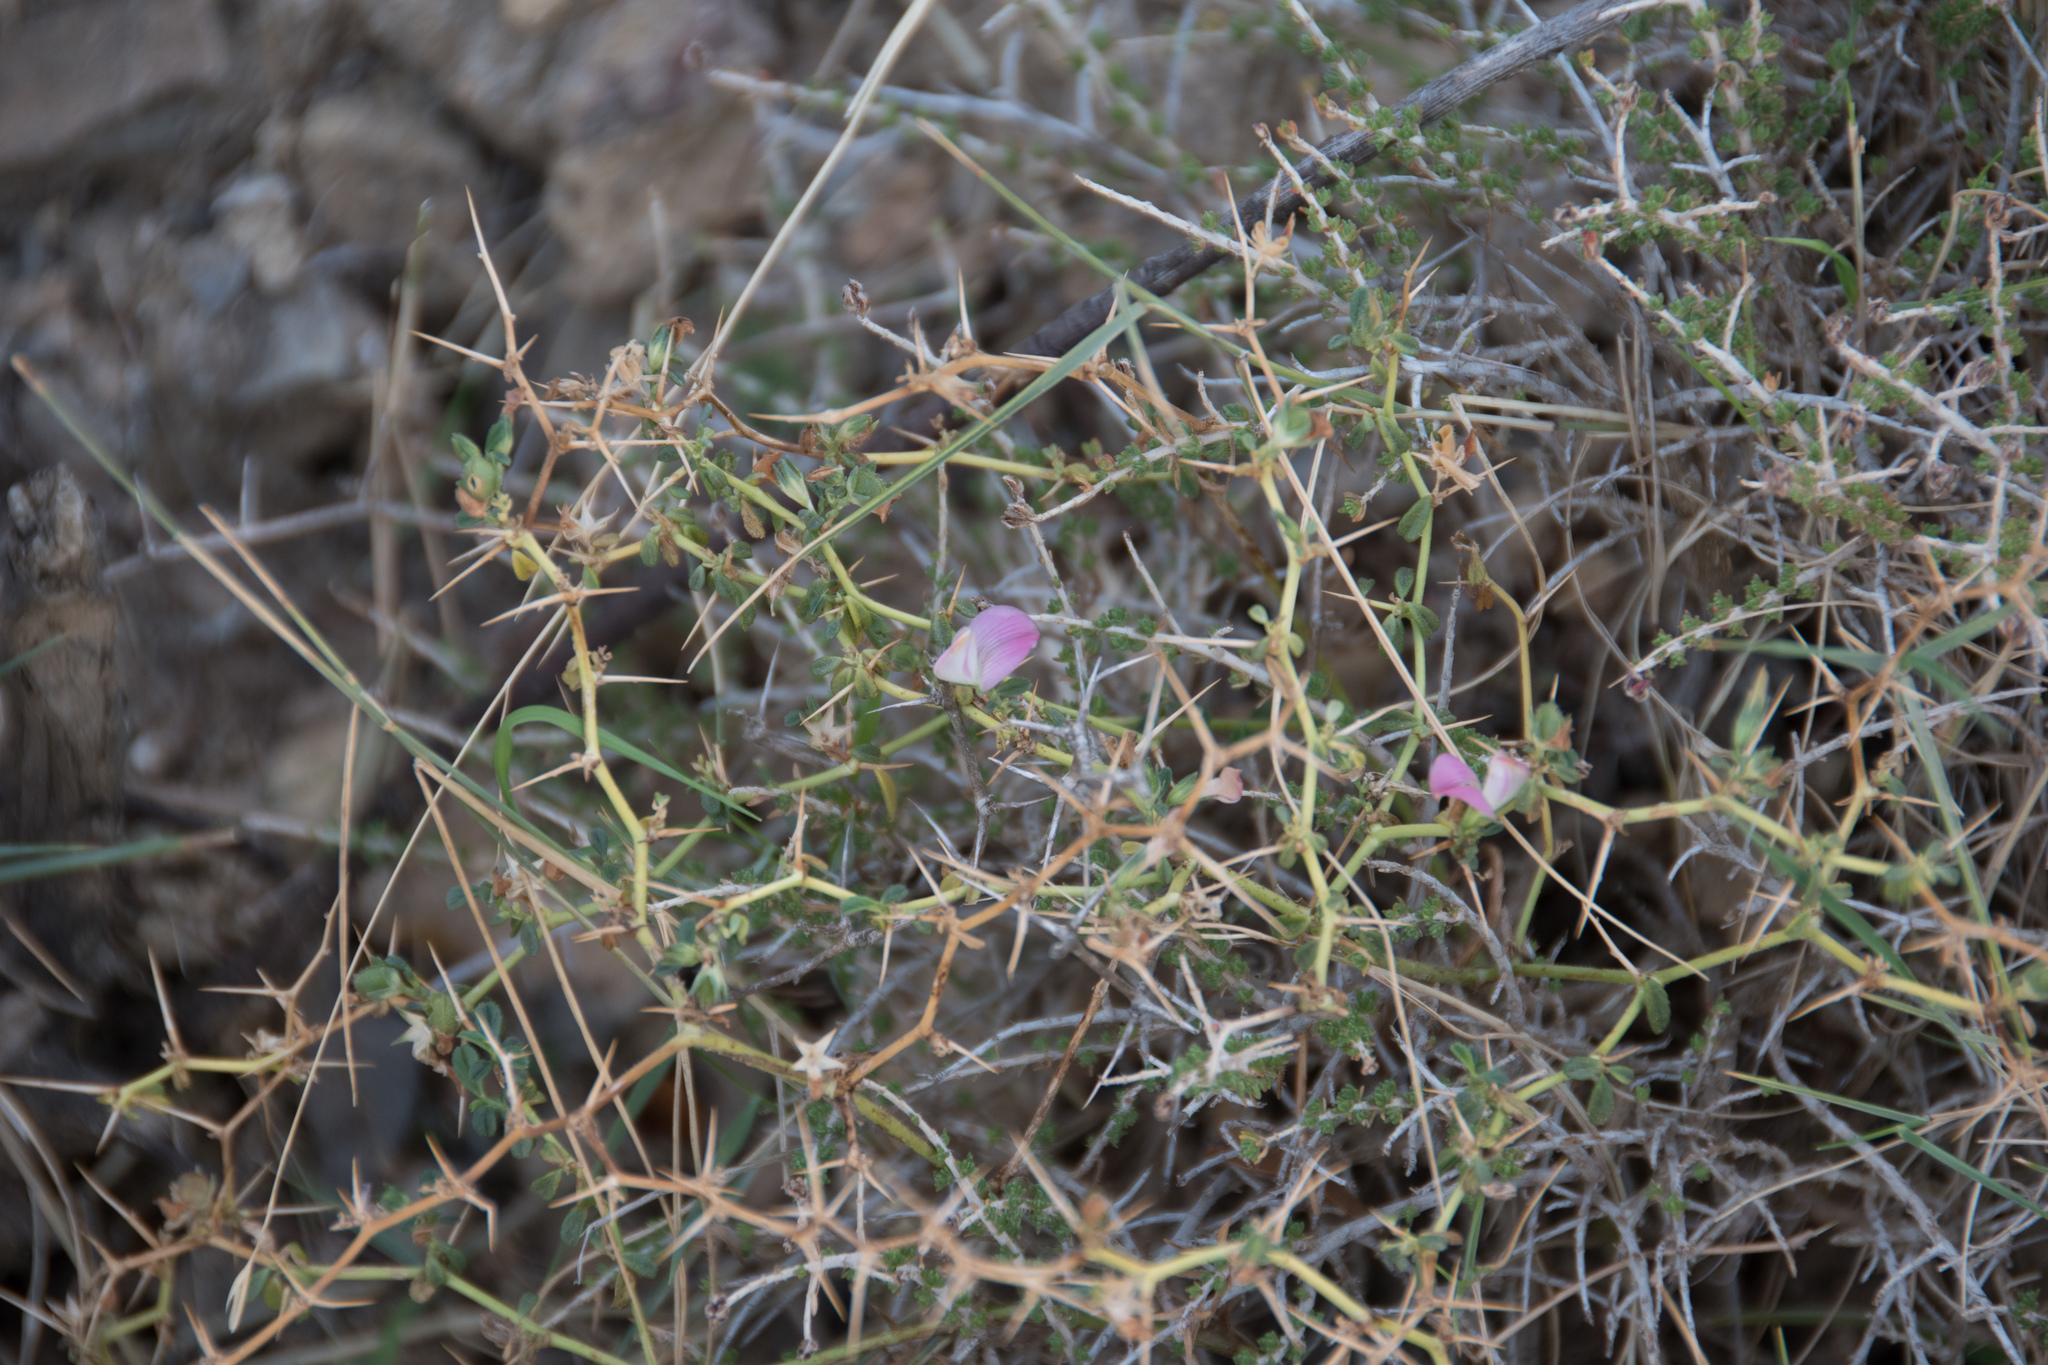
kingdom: Plantae
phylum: Tracheophyta
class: Magnoliopsida
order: Fabales
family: Fabaceae
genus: Ononis
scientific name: Ononis spinosa
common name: Spiny restharrow
